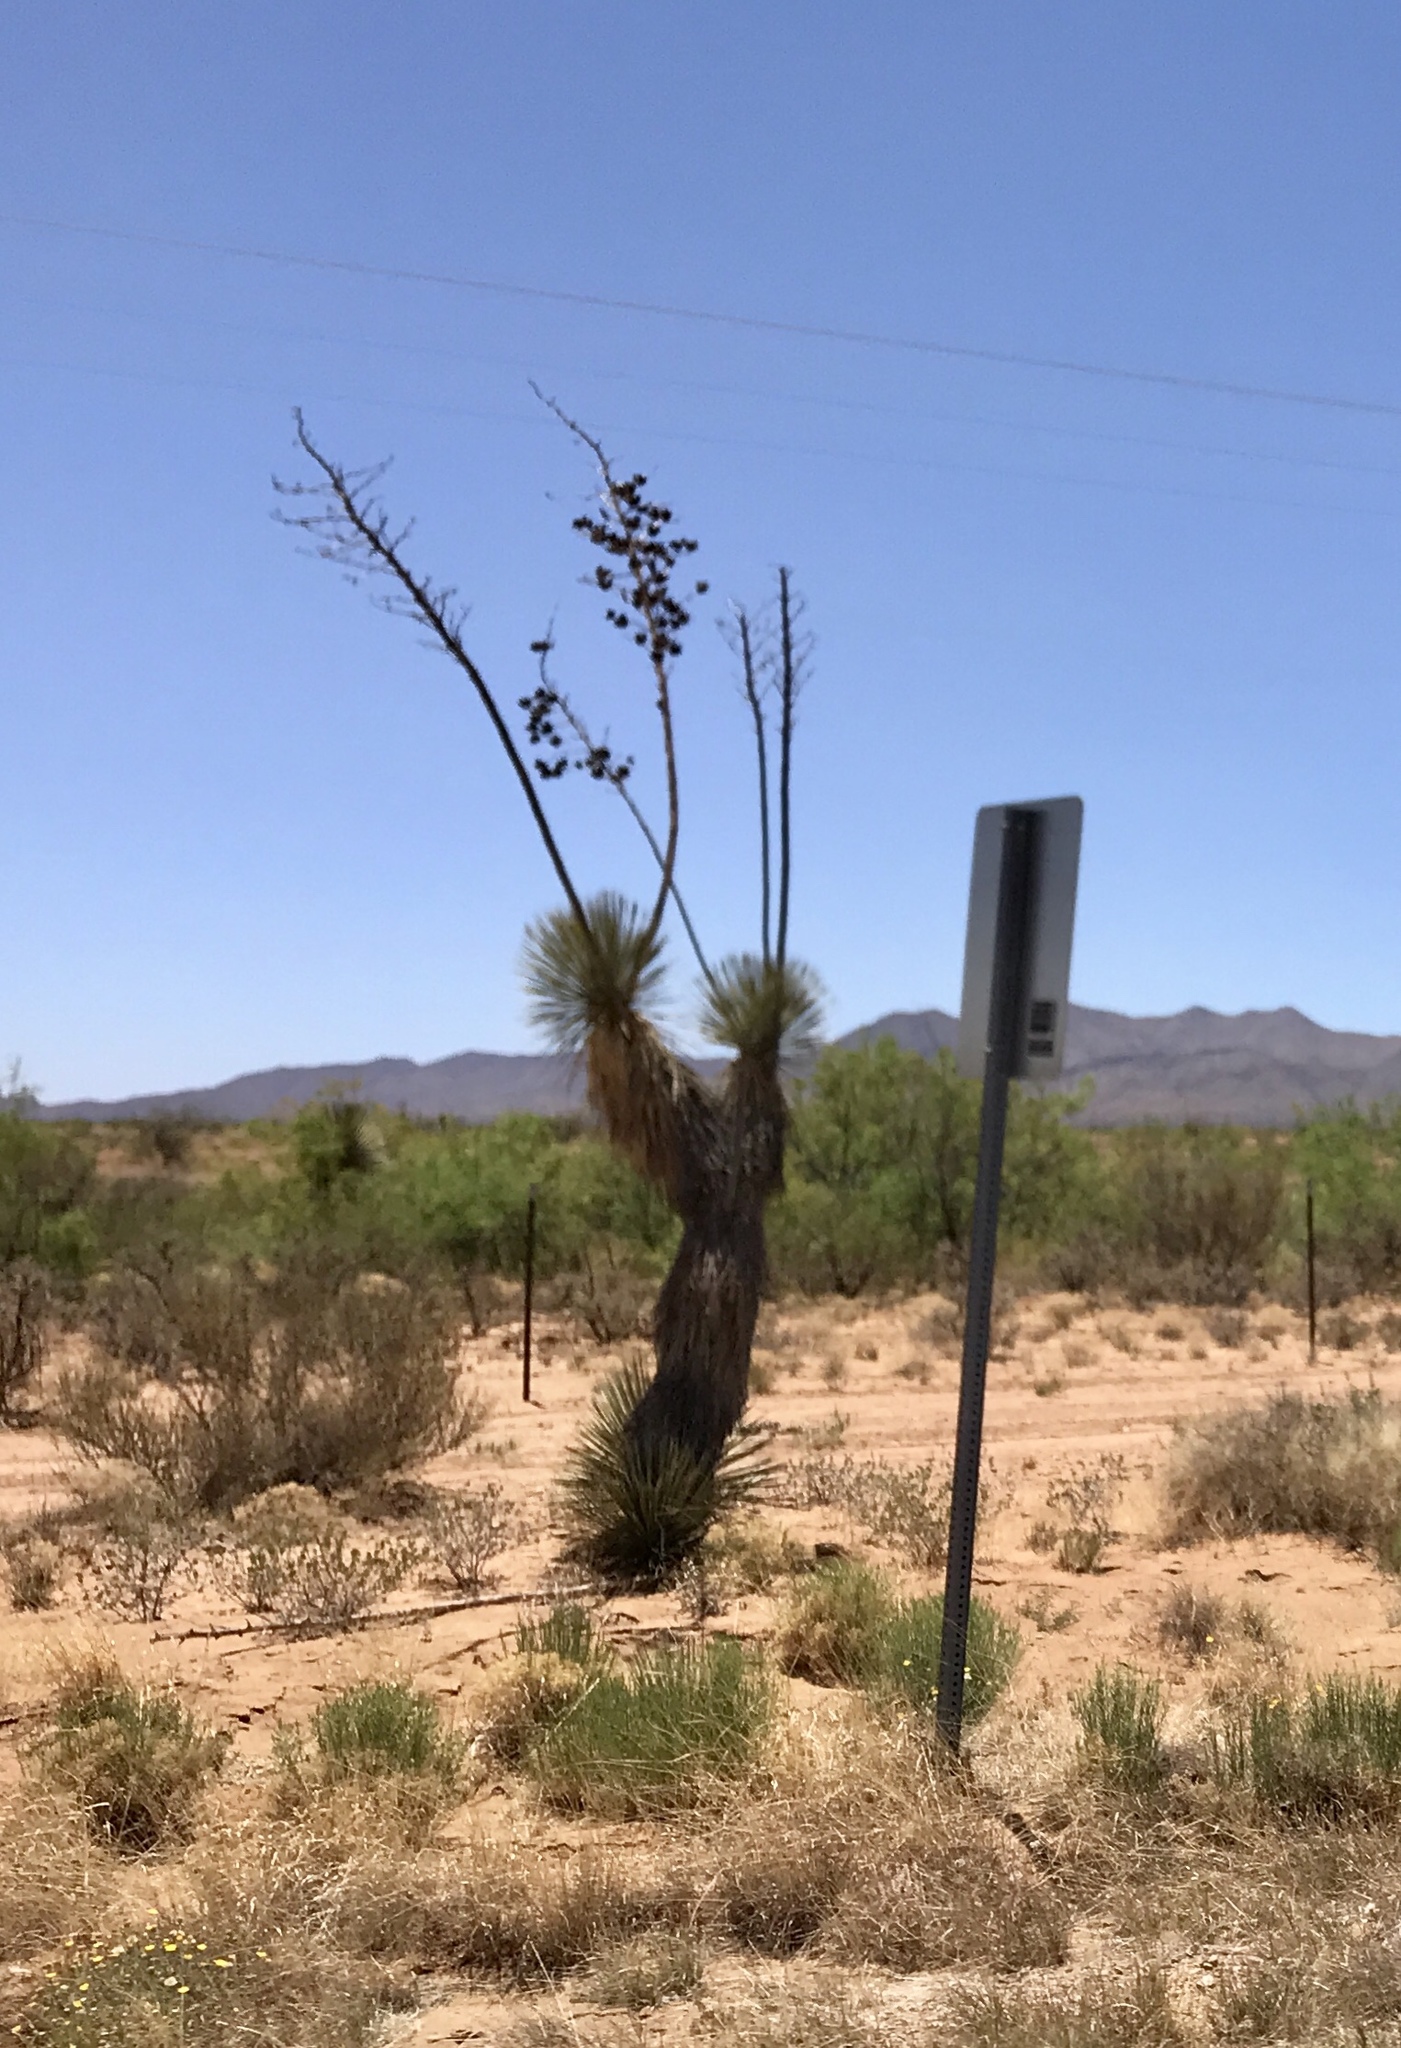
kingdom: Plantae
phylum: Tracheophyta
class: Liliopsida
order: Asparagales
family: Asparagaceae
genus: Yucca
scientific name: Yucca elata
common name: Palmella
